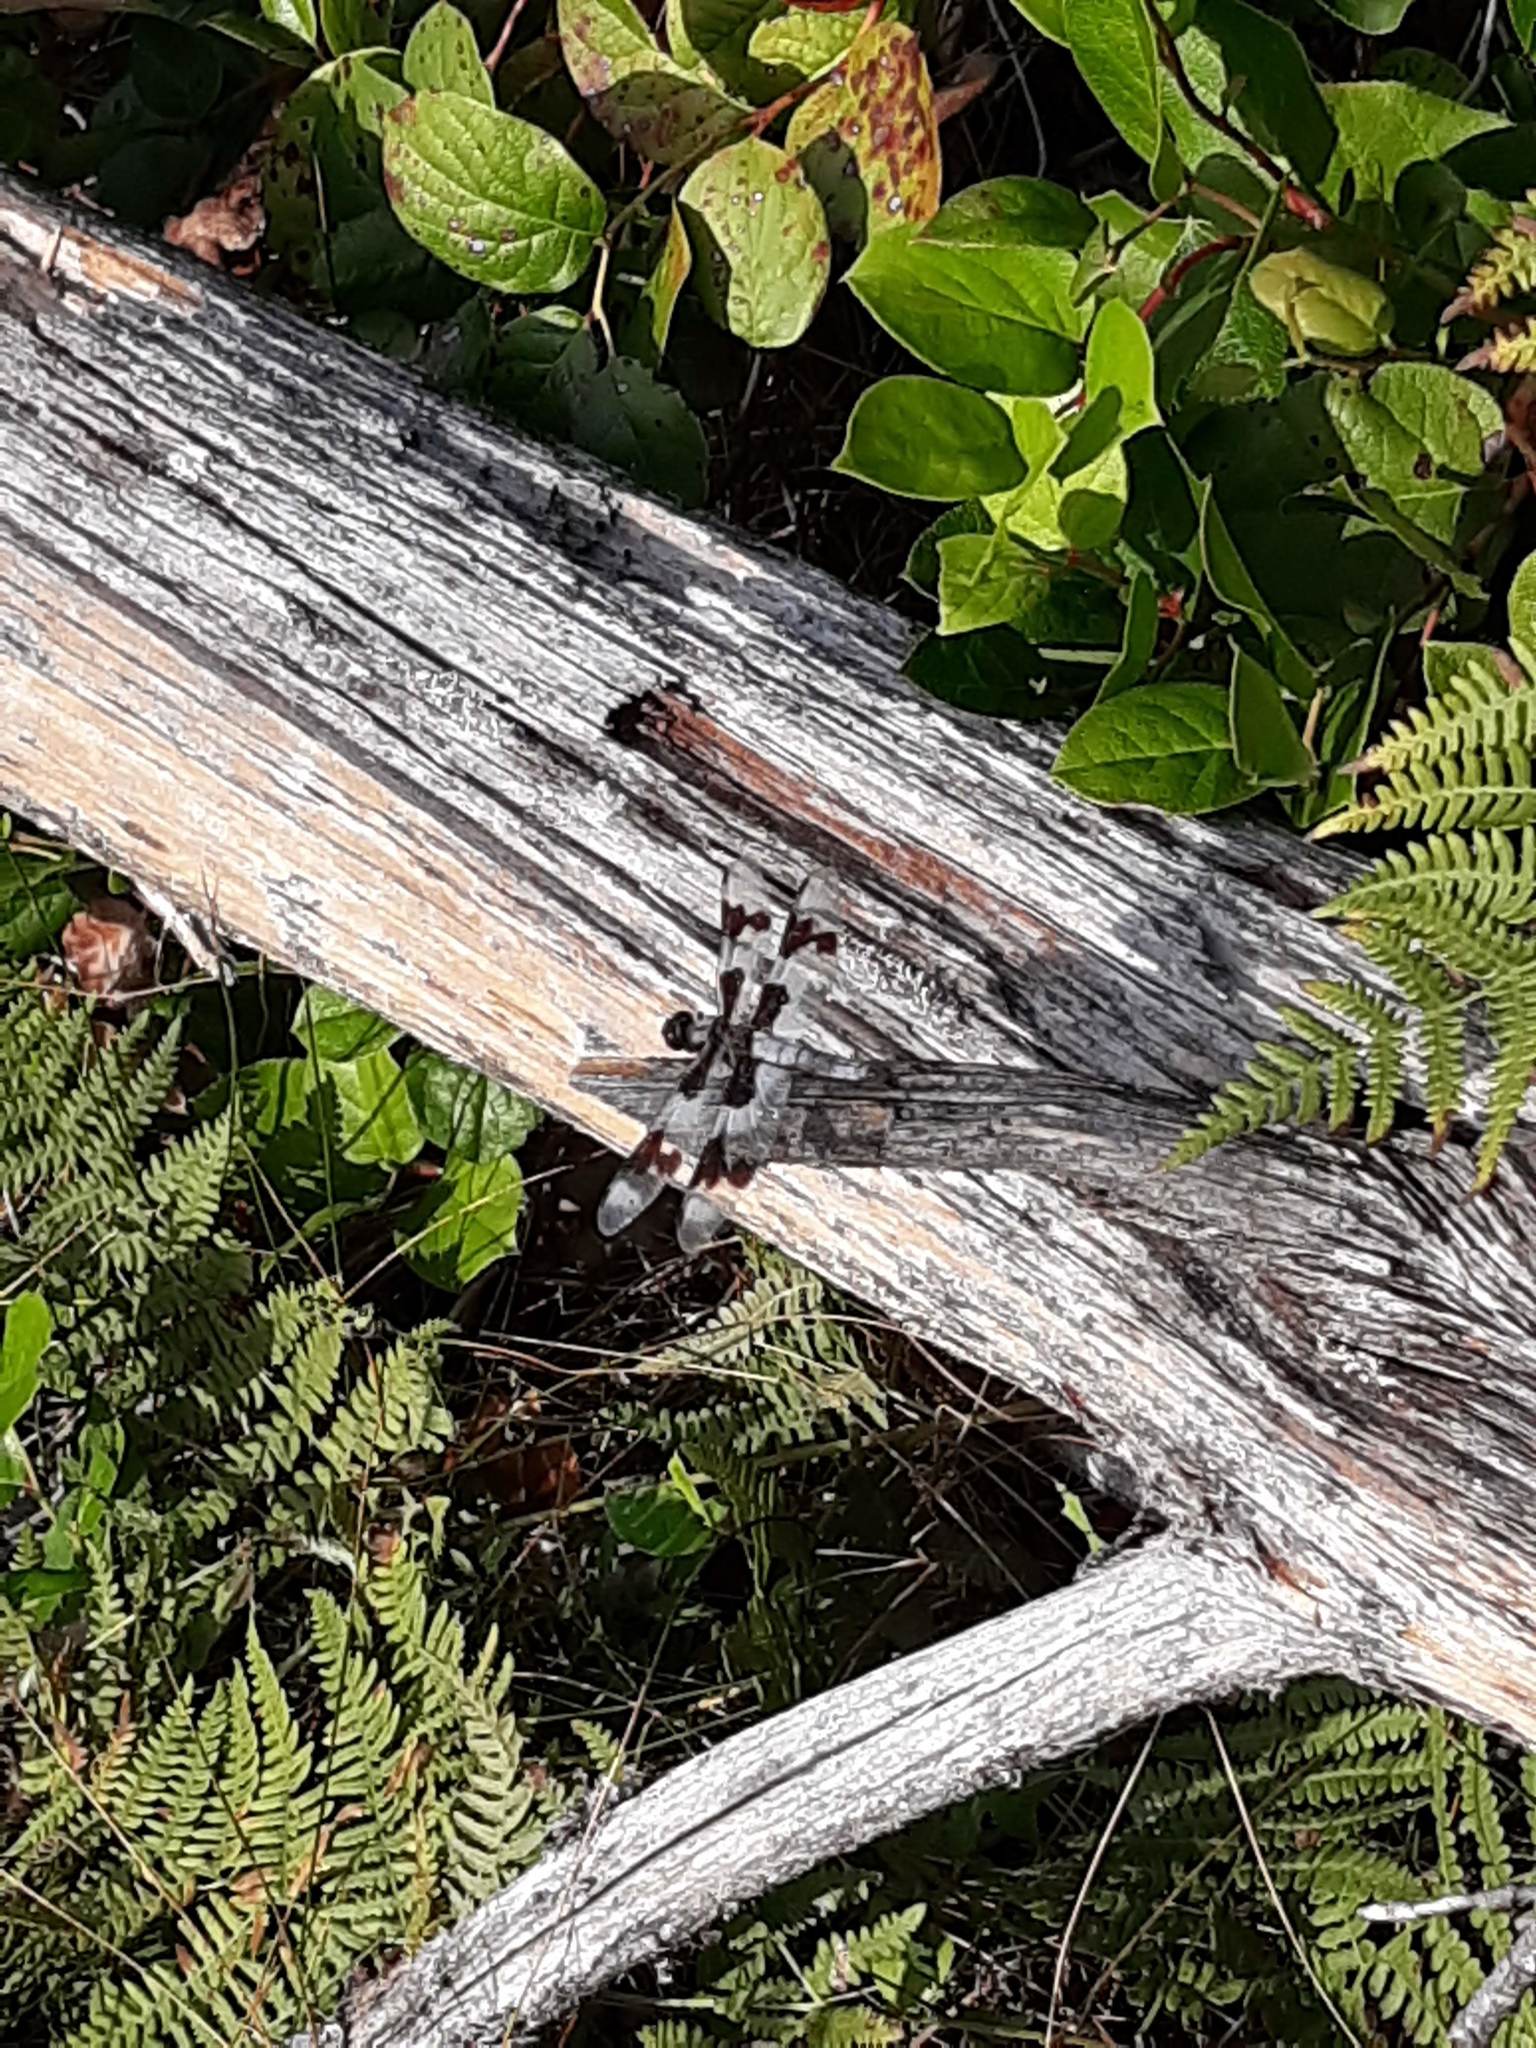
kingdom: Animalia
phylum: Arthropoda
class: Insecta
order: Odonata
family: Libellulidae
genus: Libellula
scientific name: Libellula forensis
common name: Eight-spotted skimmer
